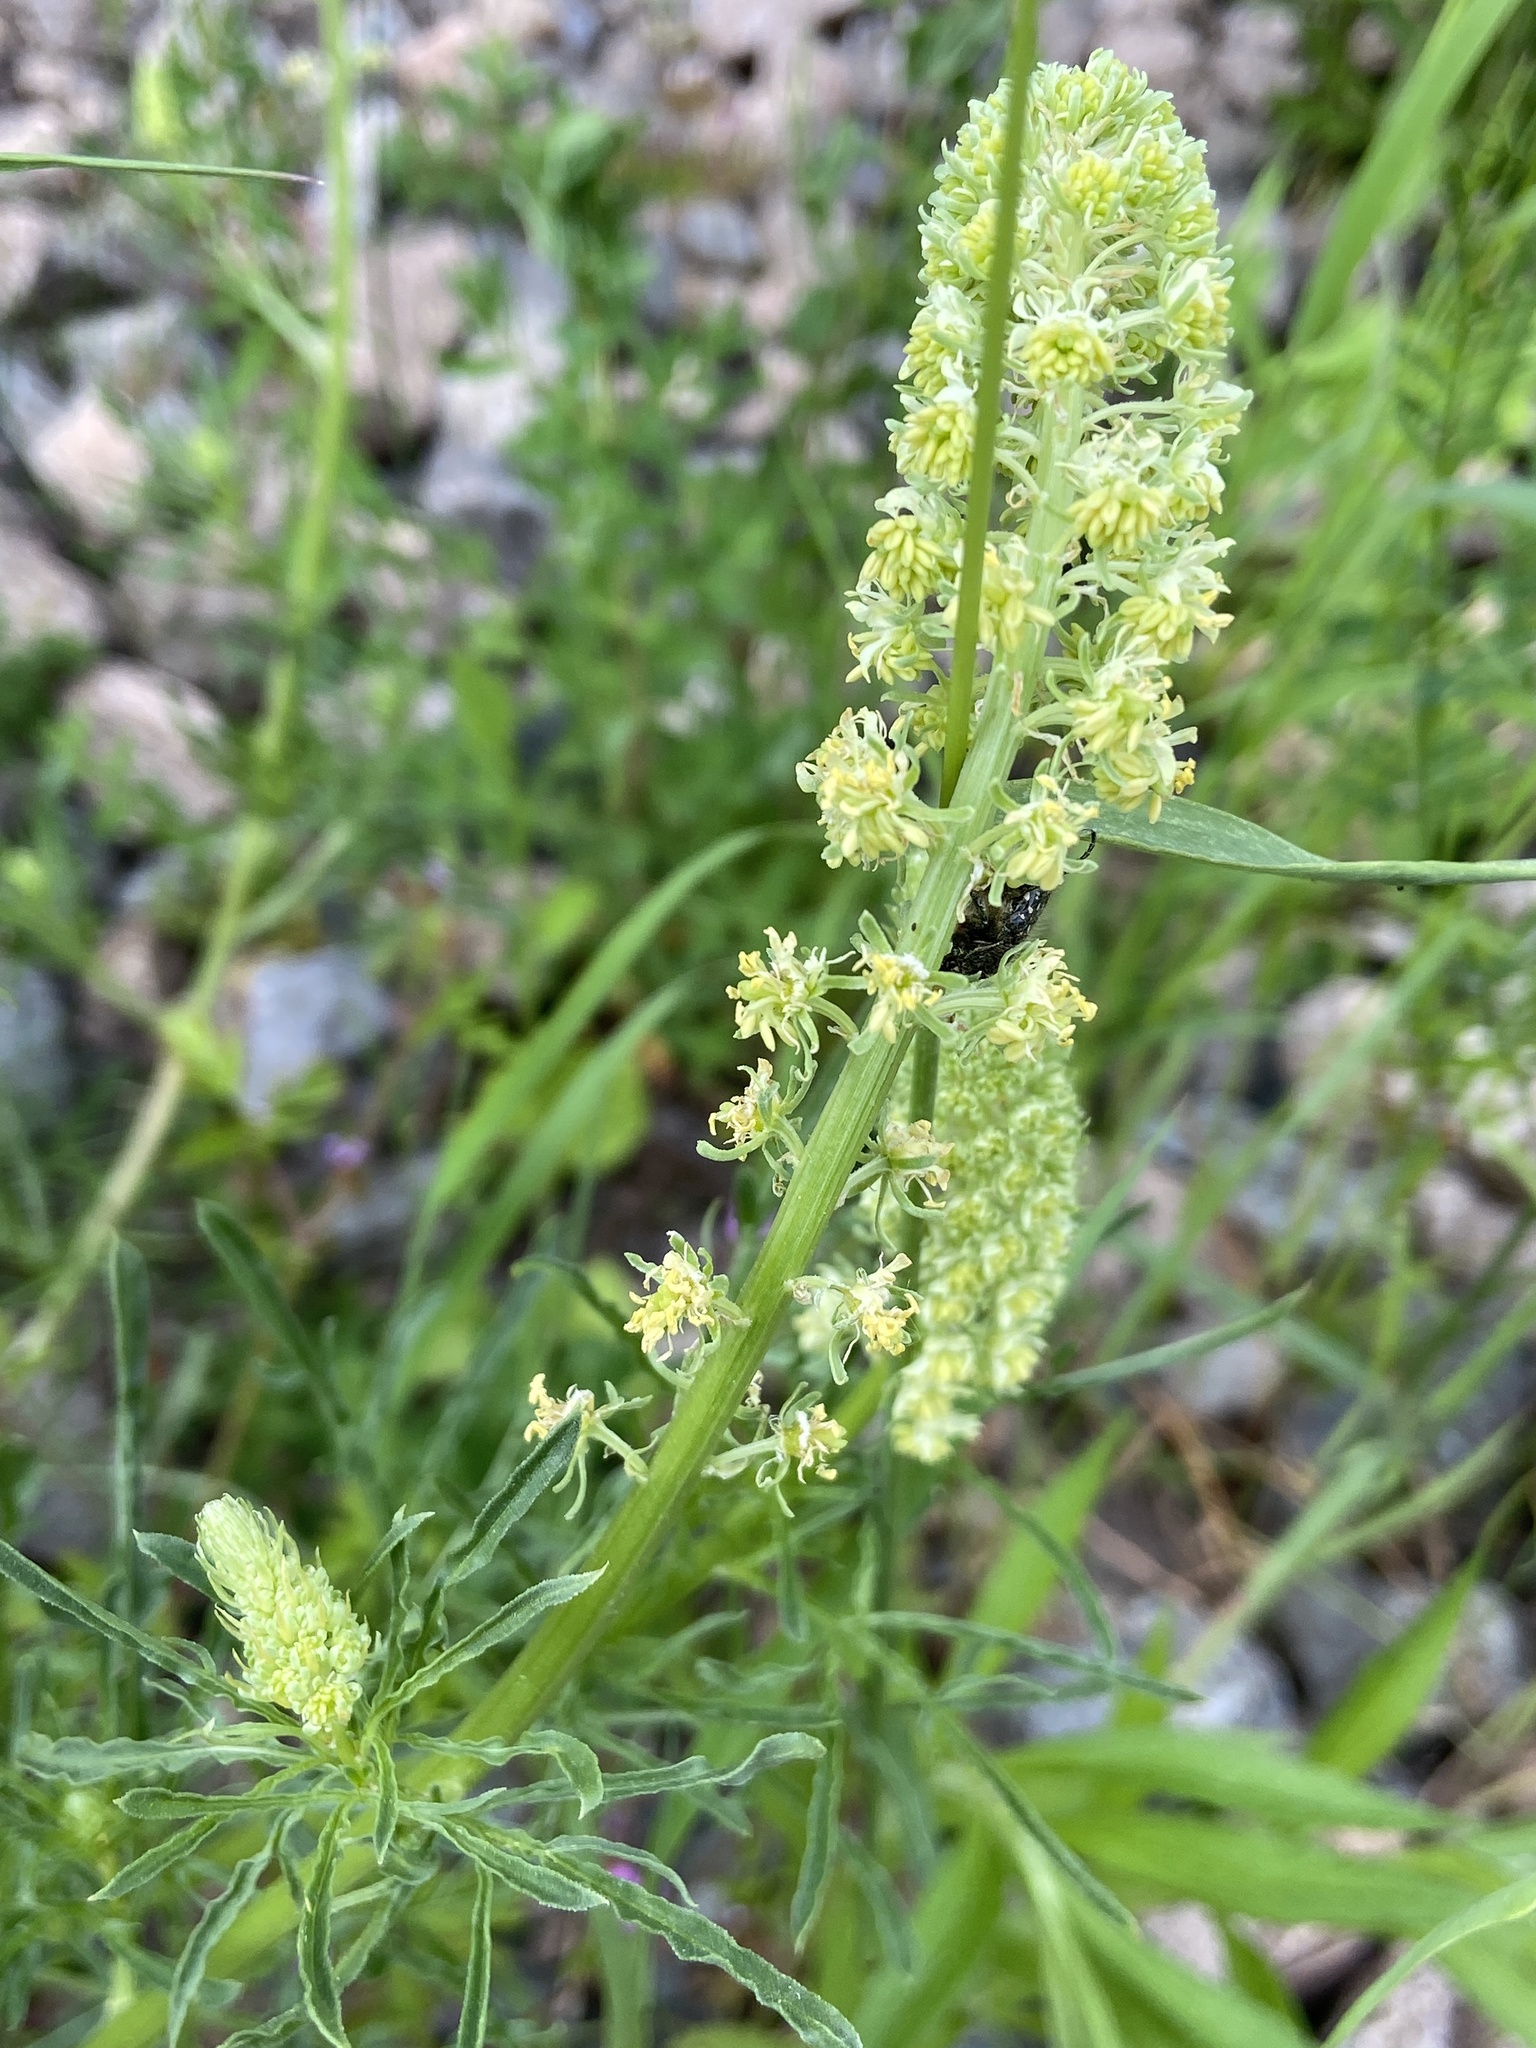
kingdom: Plantae
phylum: Tracheophyta
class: Magnoliopsida
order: Brassicales
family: Resedaceae
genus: Reseda
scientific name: Reseda lutea
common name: Wild mignonette
